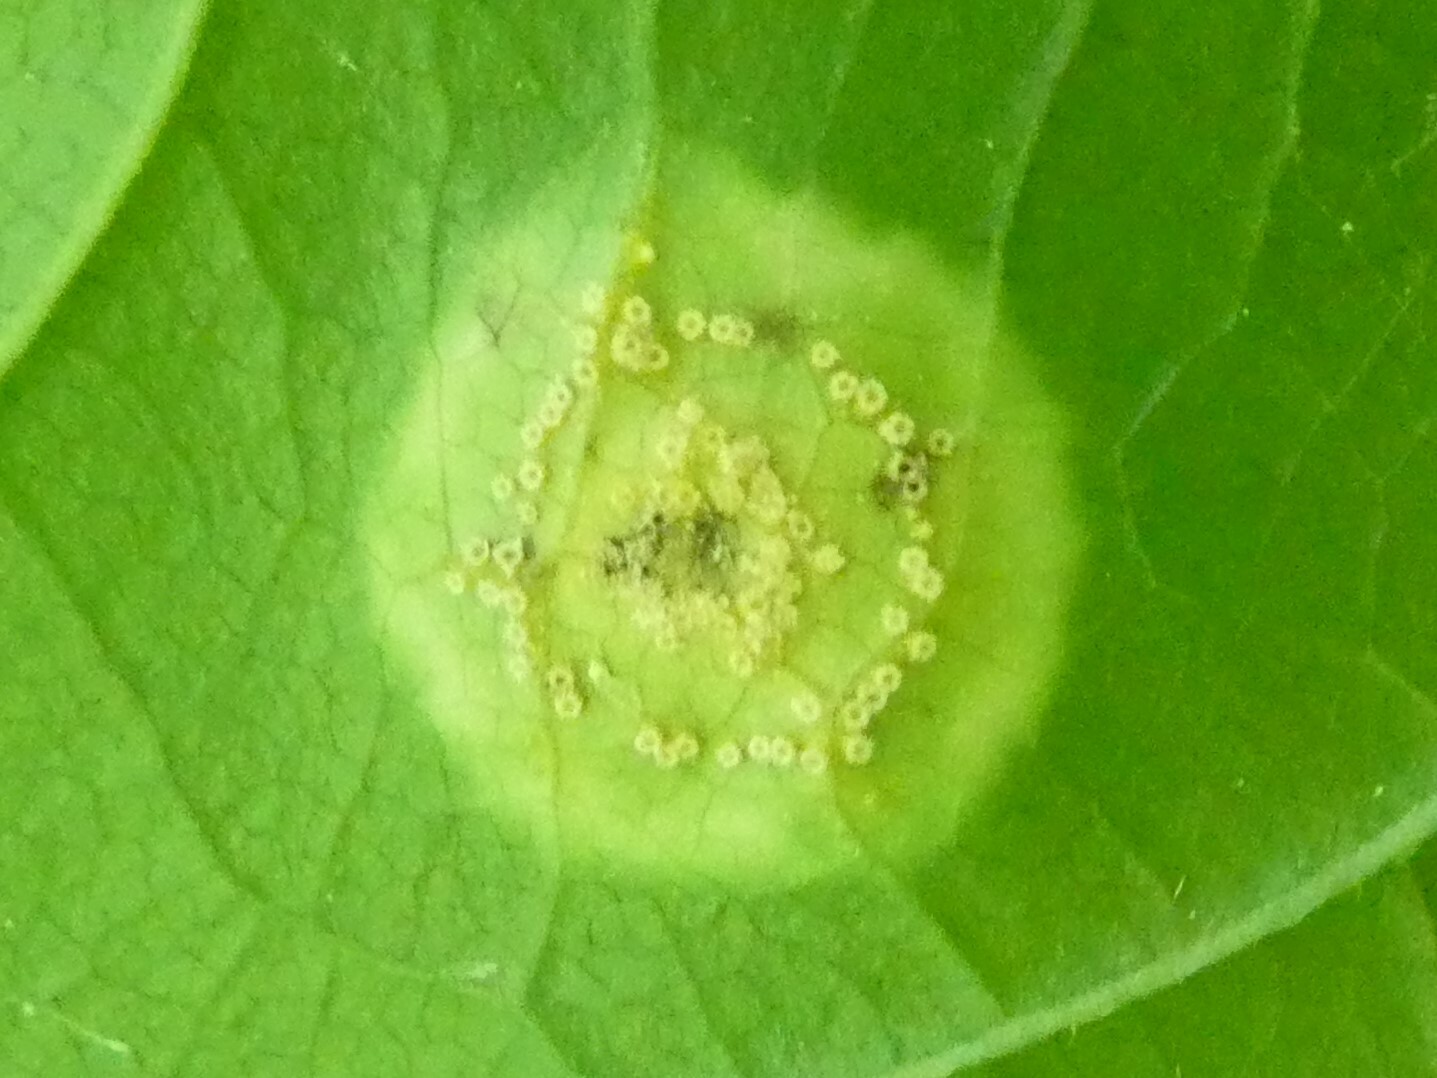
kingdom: Plantae
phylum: Tracheophyta
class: Magnoliopsida
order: Asterales
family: Asteraceae
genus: Ageratina
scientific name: Ageratina altissima
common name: White snakeroot
